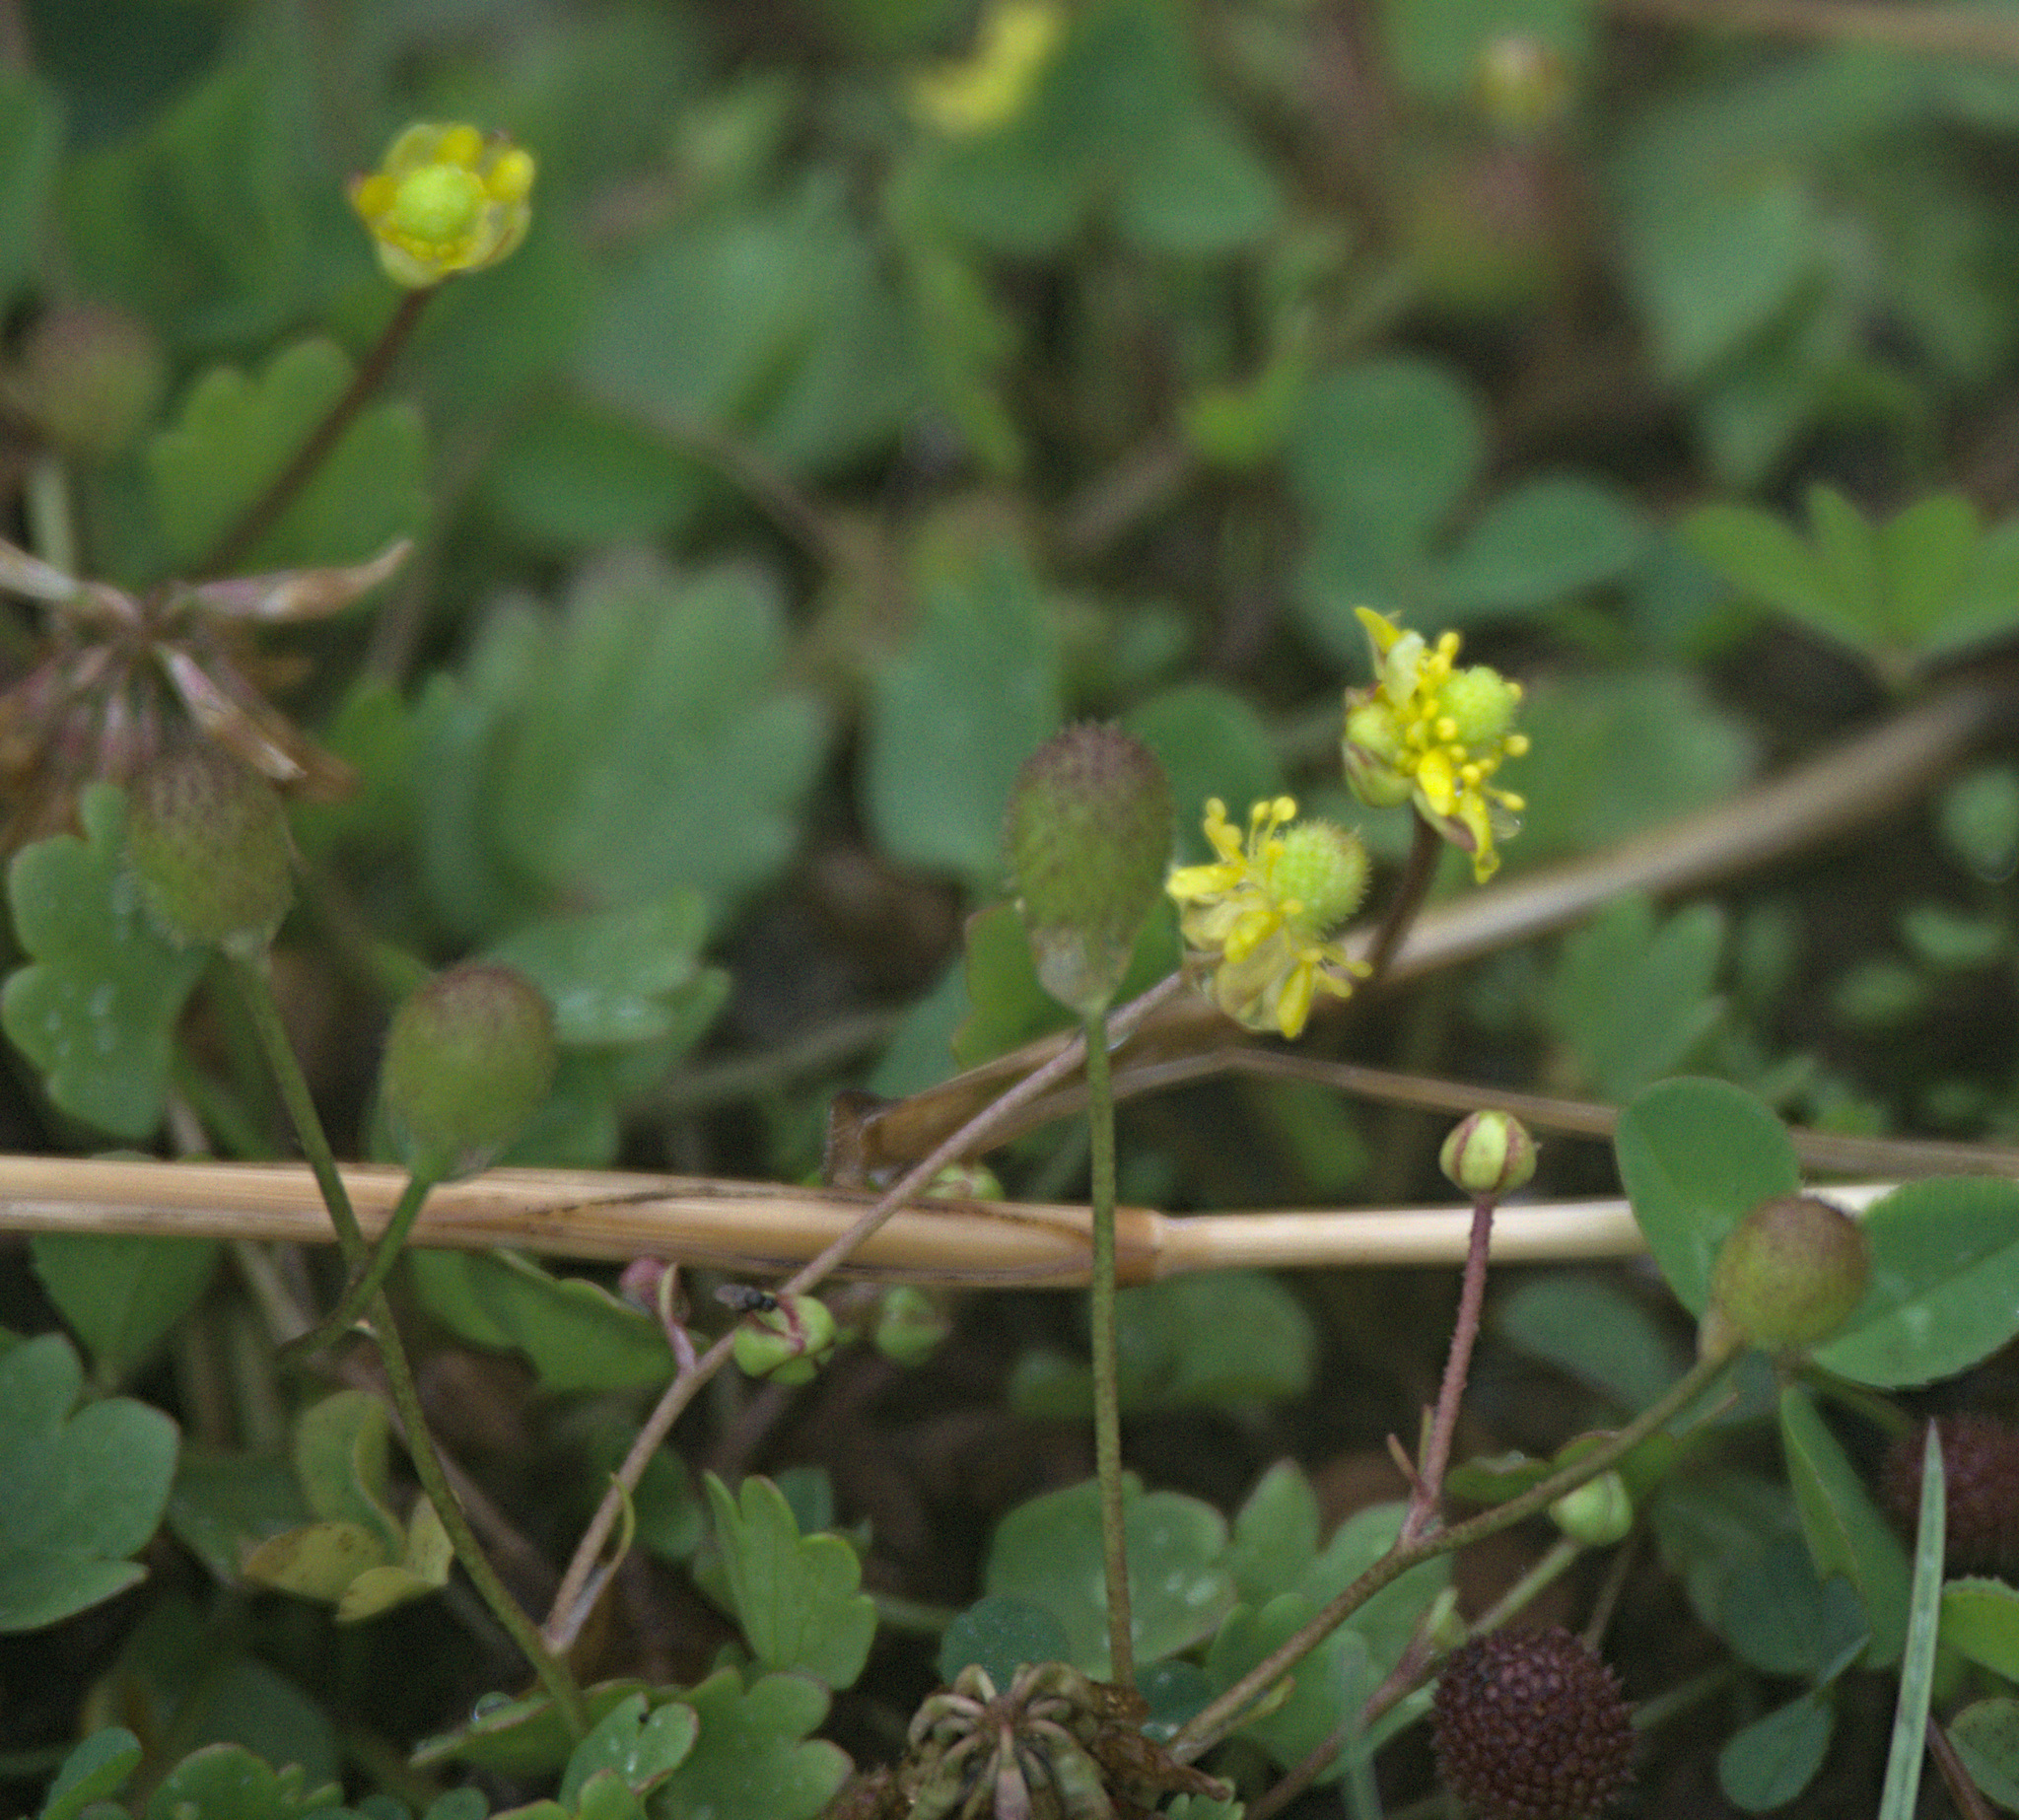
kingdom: Plantae
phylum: Tracheophyta
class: Magnoliopsida
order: Ranunculales
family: Ranunculaceae
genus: Halerpestes
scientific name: Halerpestes sarmentosus
